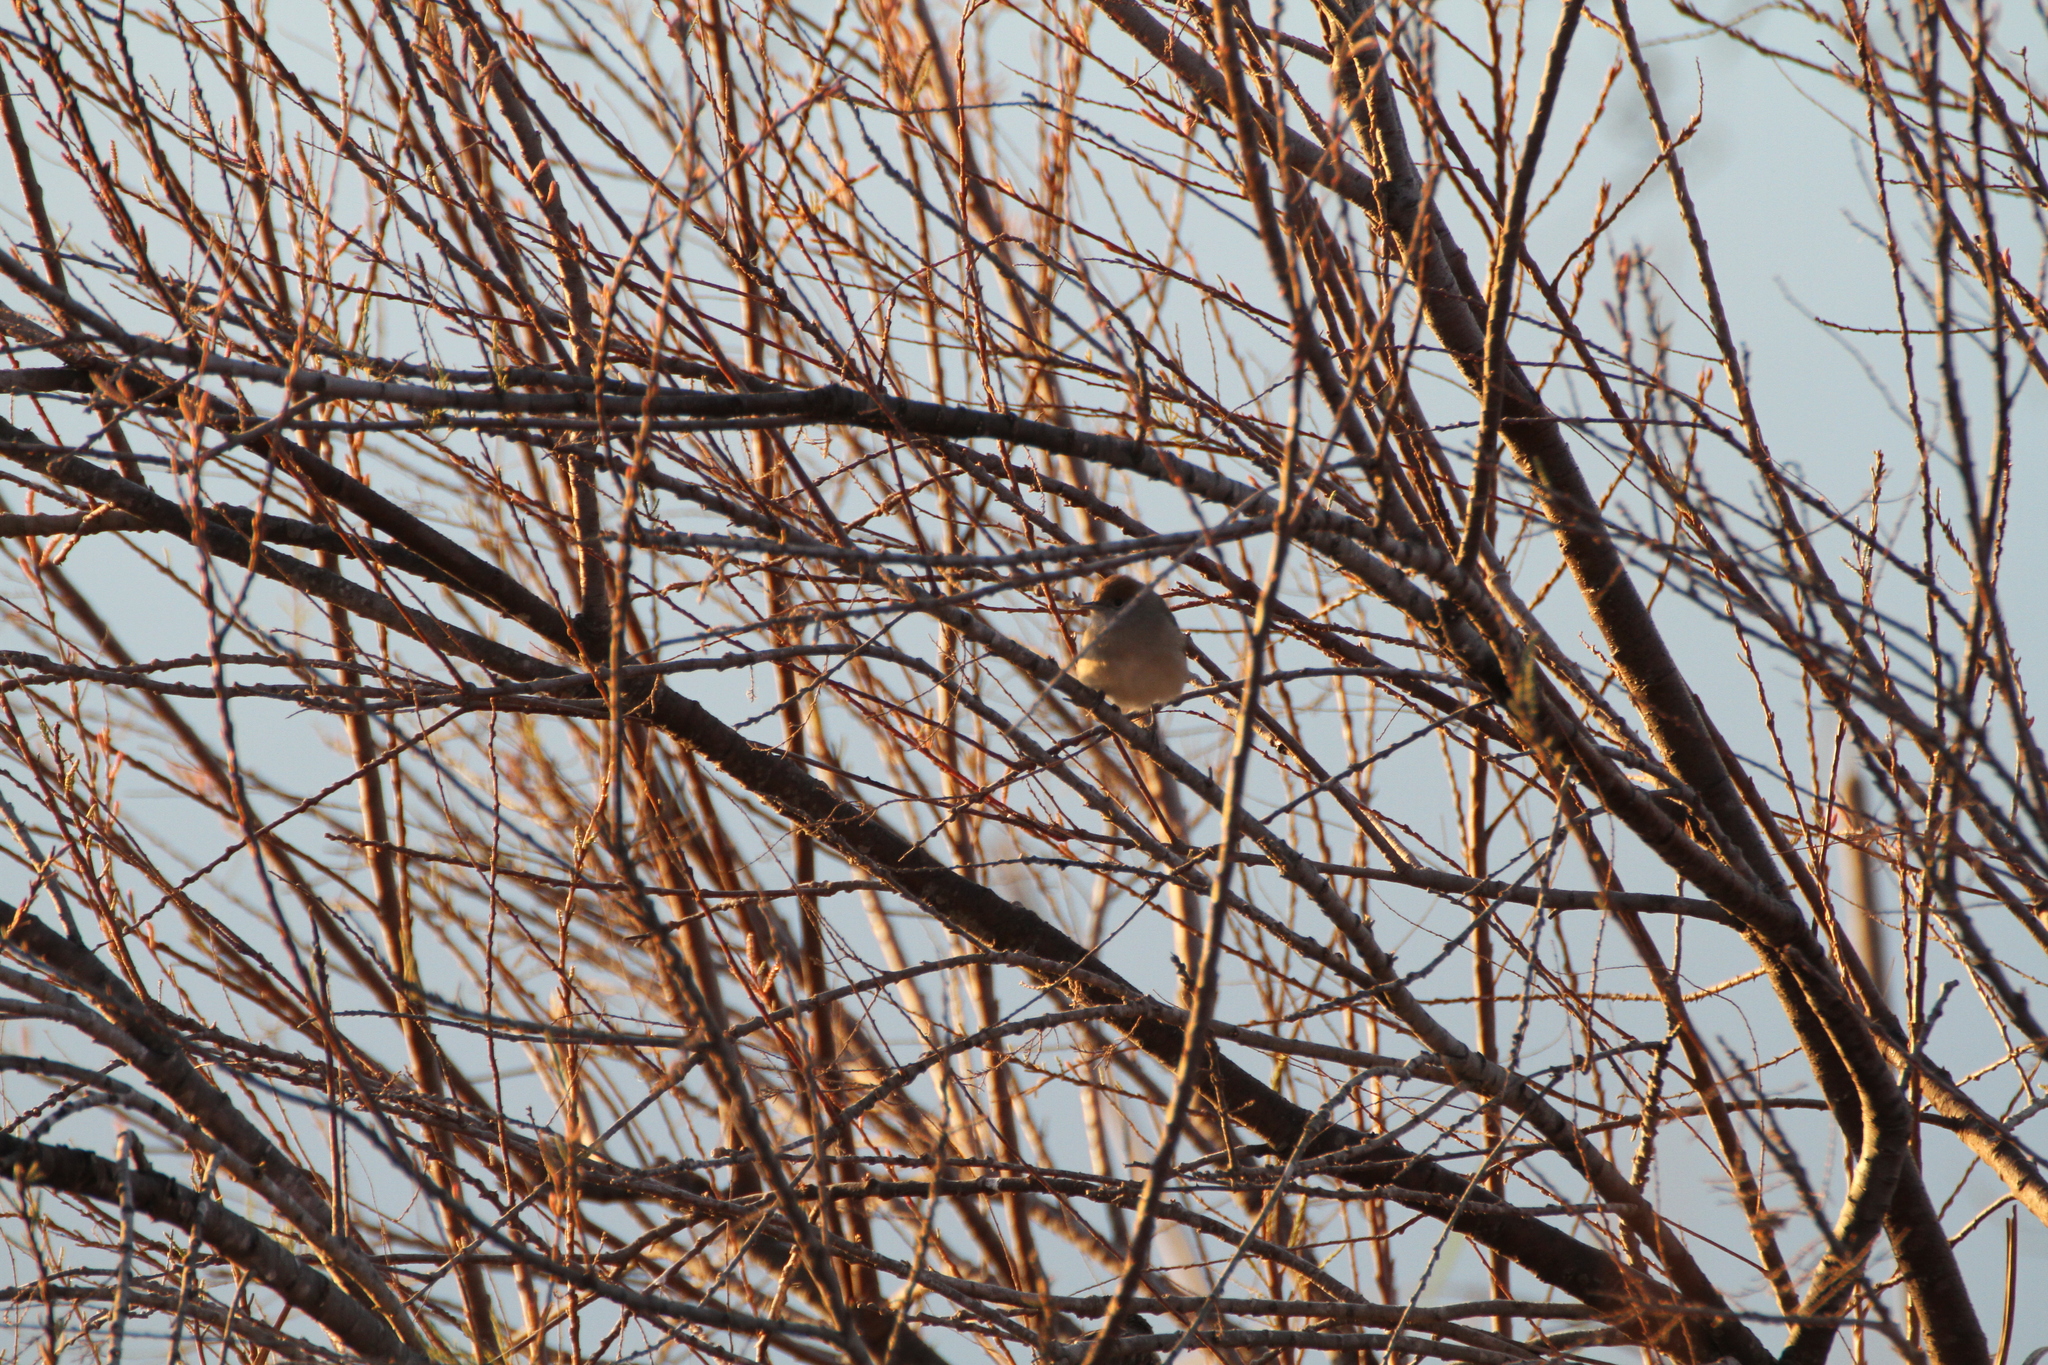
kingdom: Animalia
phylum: Chordata
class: Aves
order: Passeriformes
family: Sylviidae
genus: Sylvia
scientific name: Sylvia atricapilla
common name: Eurasian blackcap
